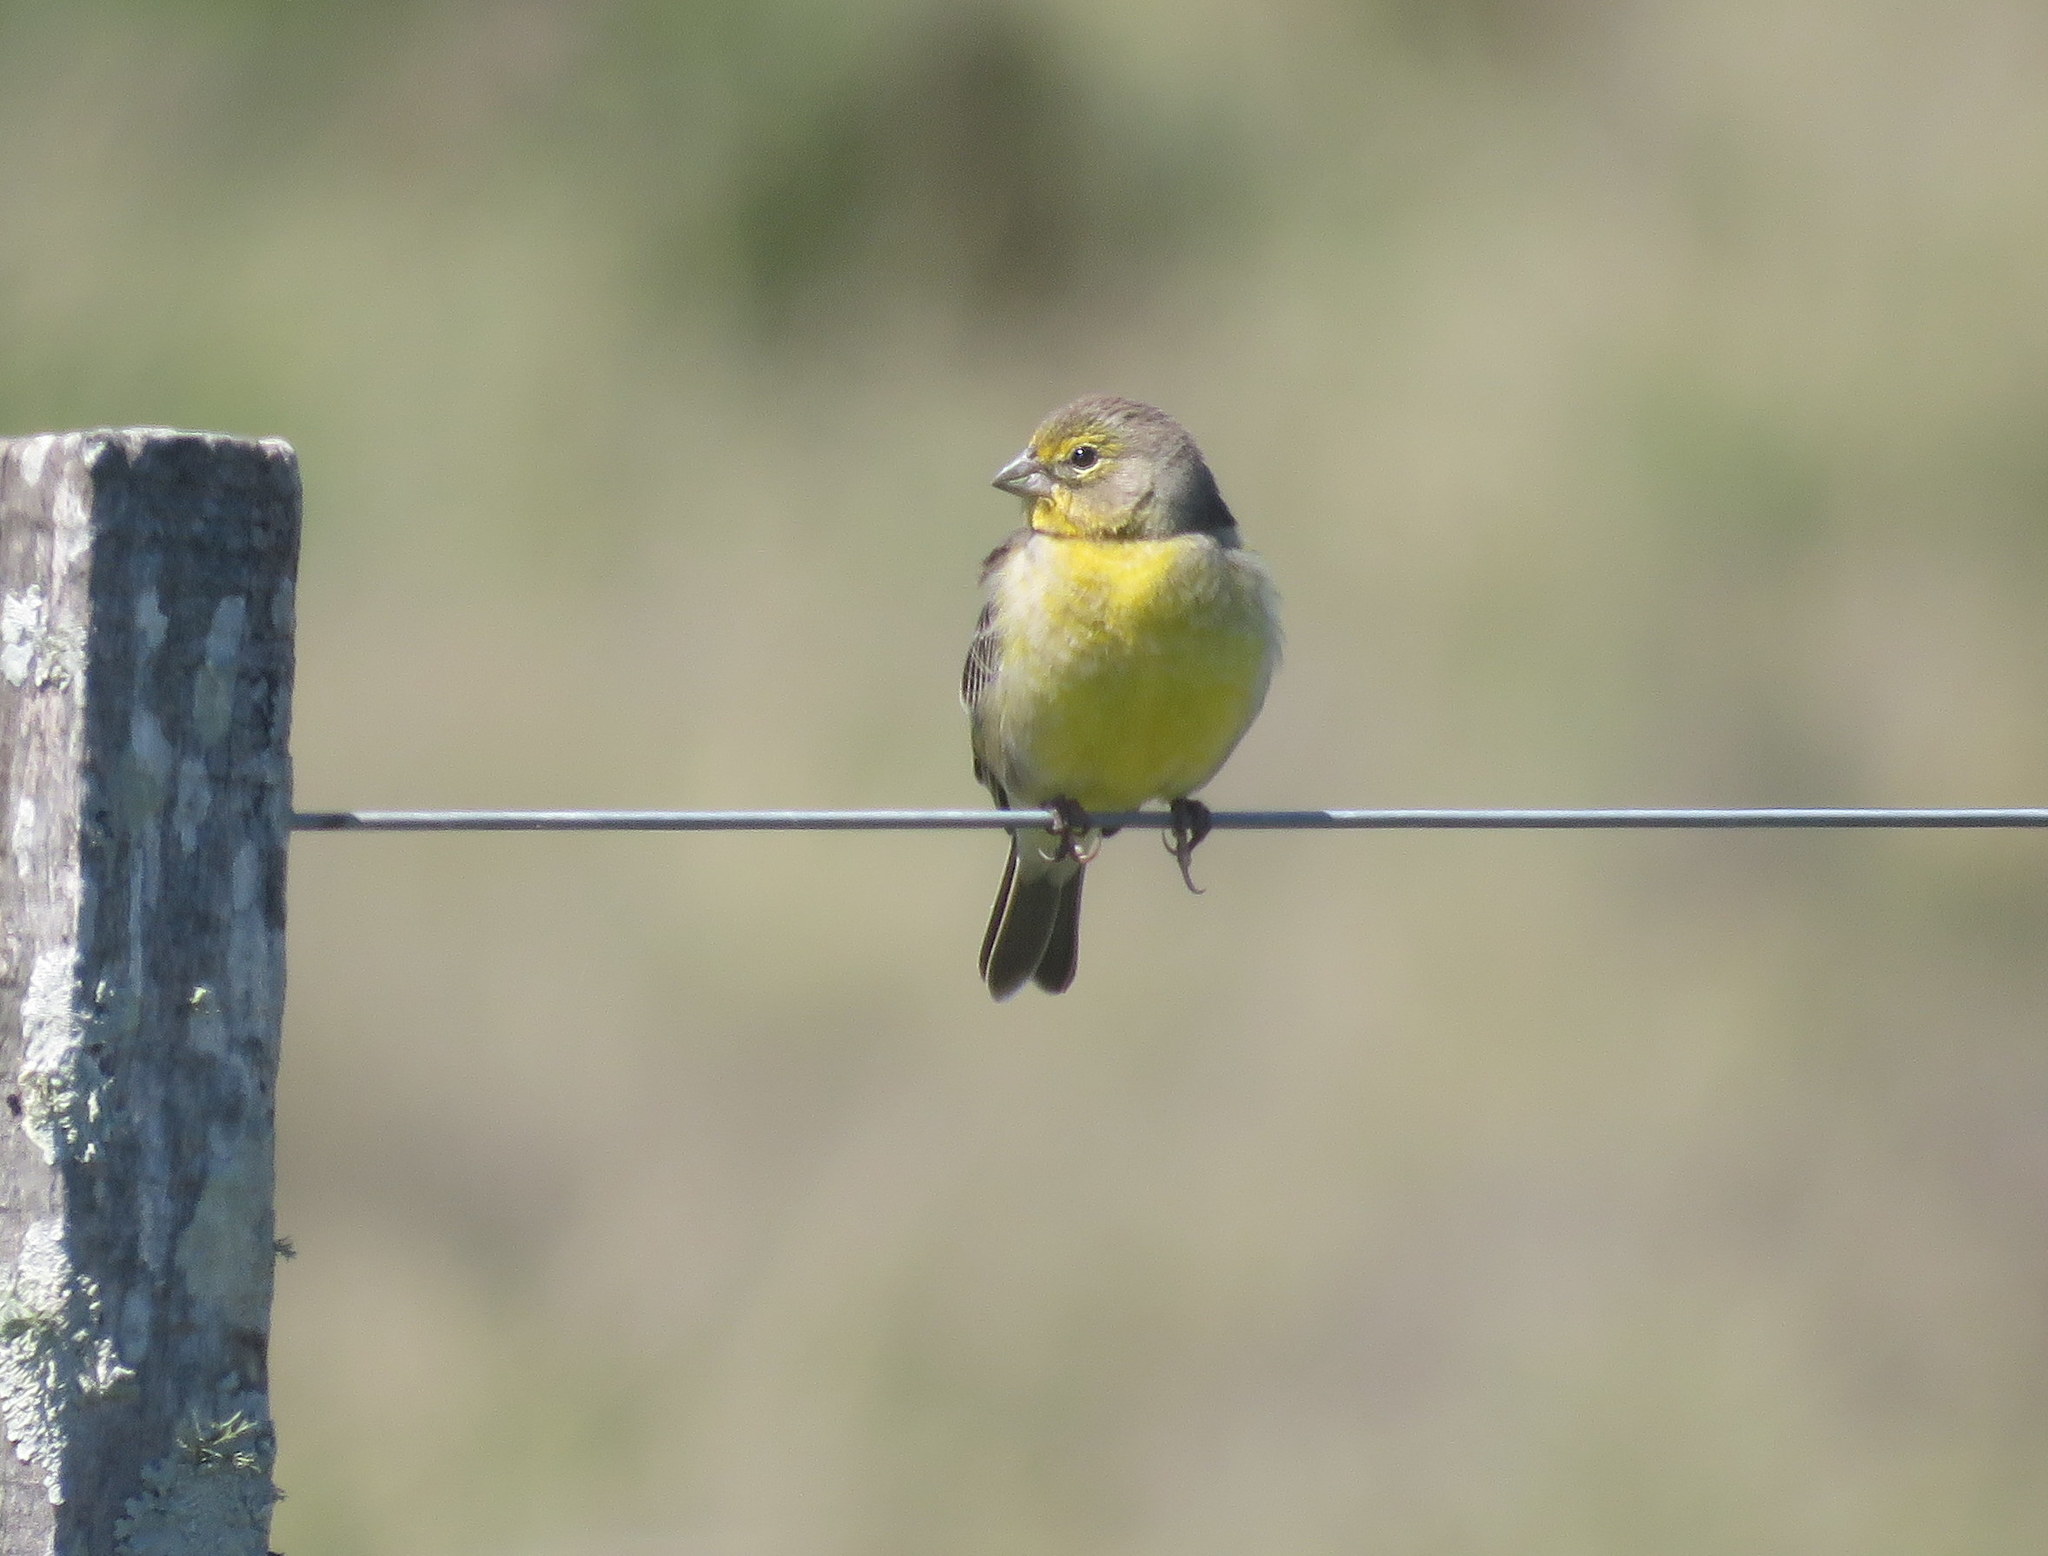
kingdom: Animalia
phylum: Chordata
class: Aves
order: Passeriformes
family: Thraupidae
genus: Sicalis
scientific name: Sicalis luteola
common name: Grassland yellow-finch
